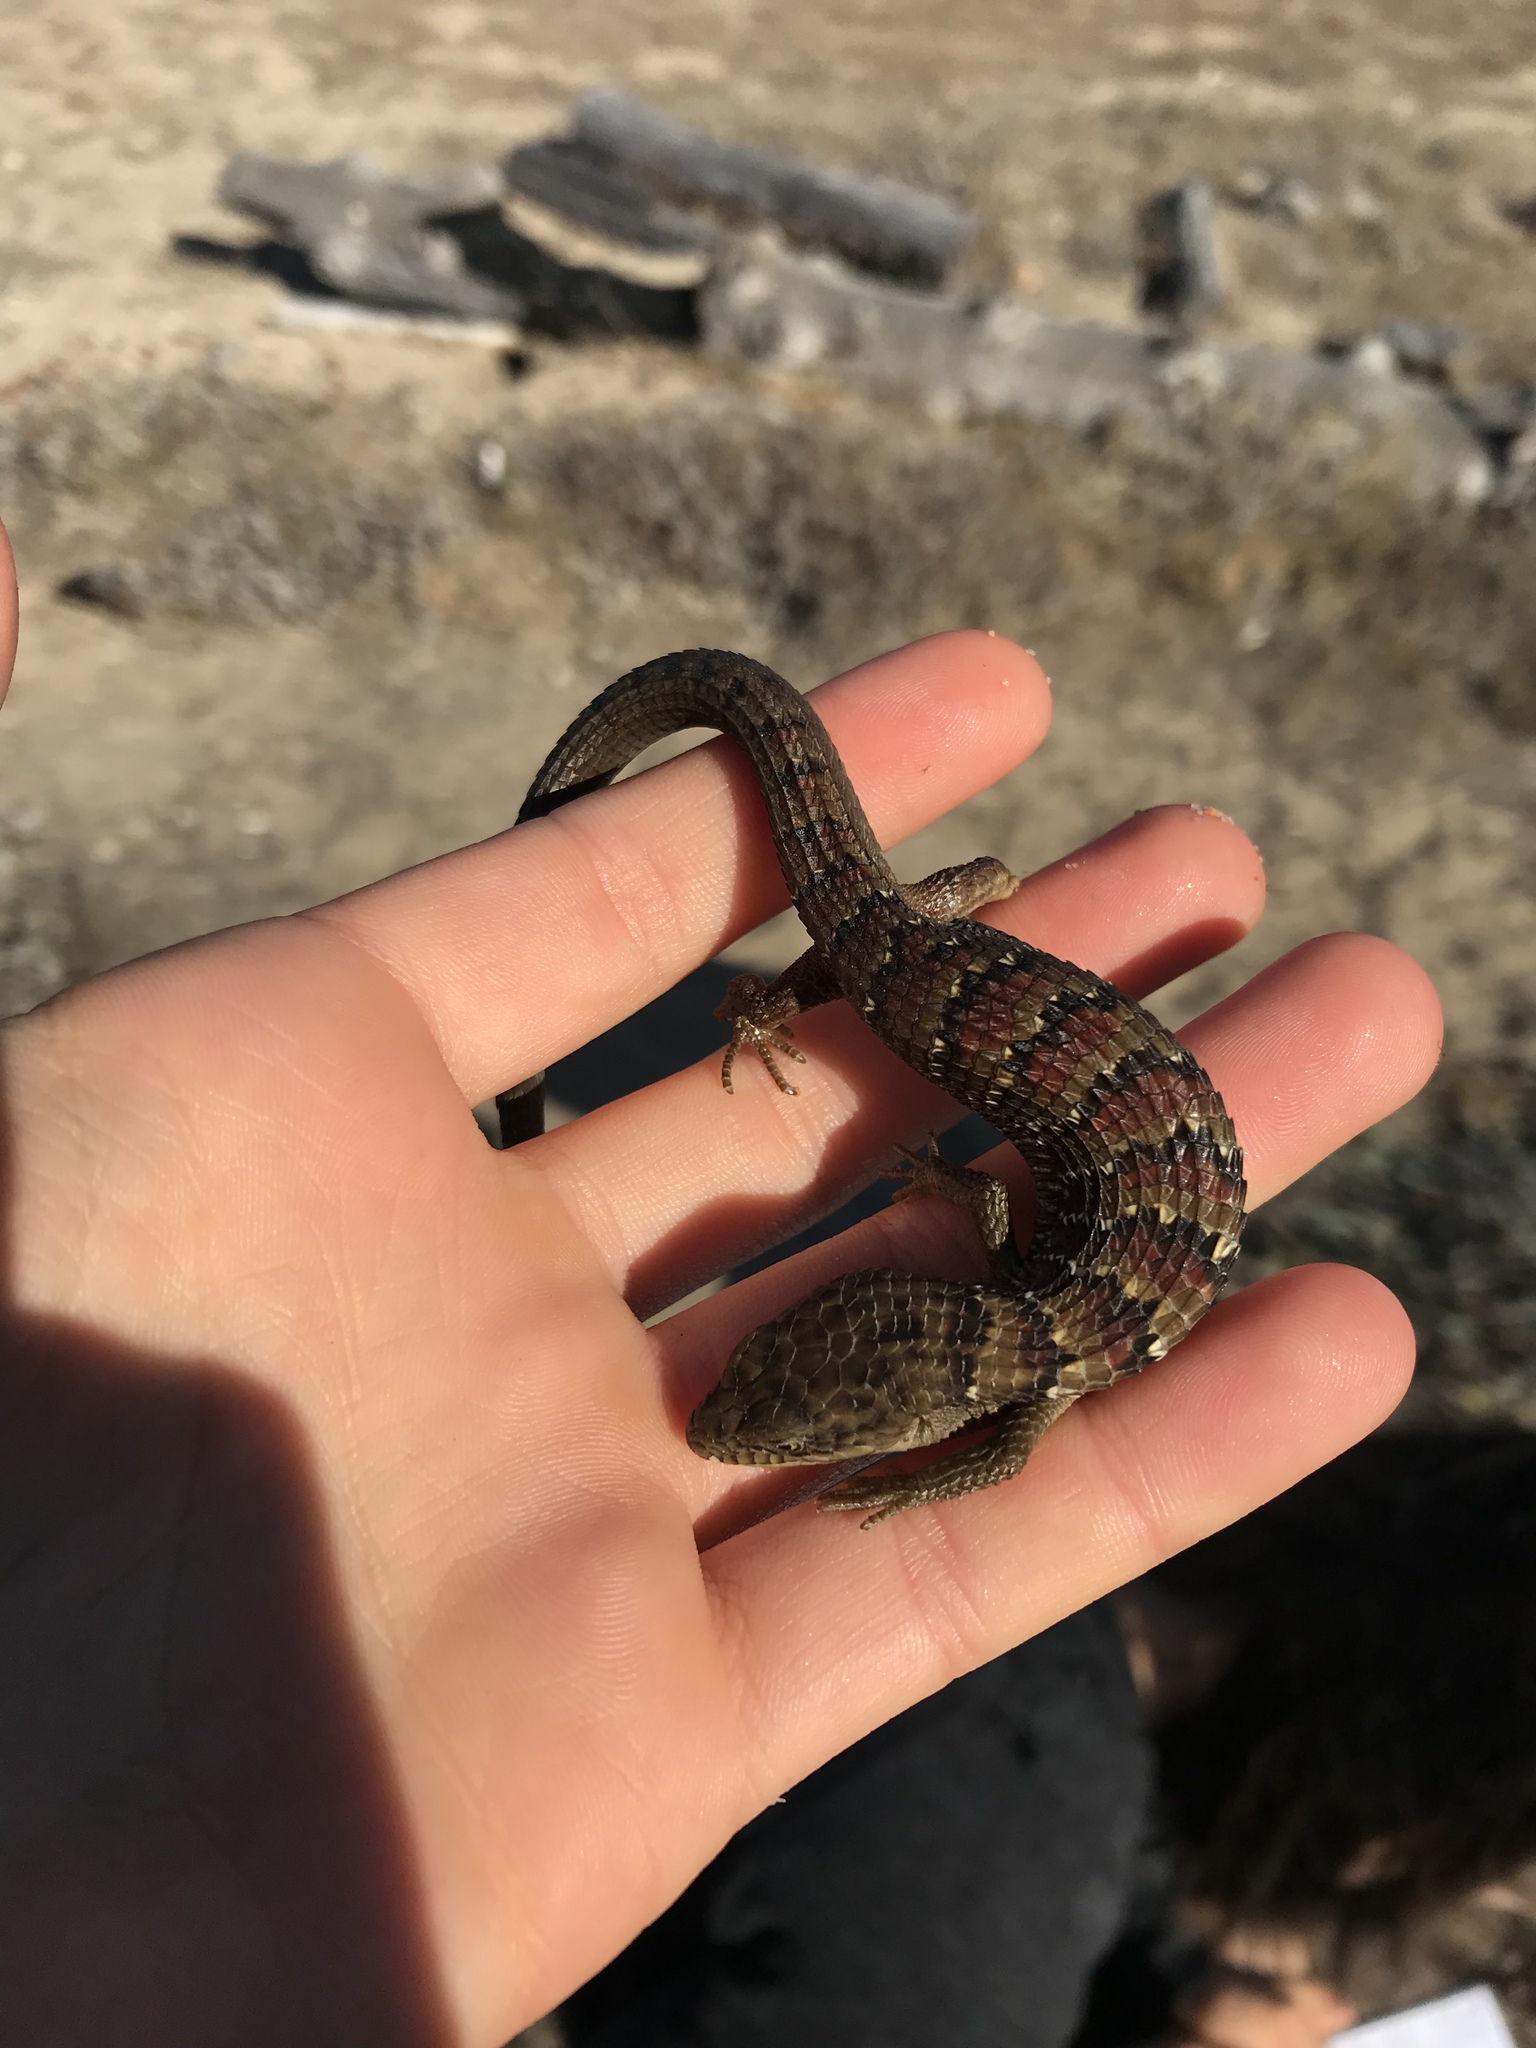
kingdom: Animalia
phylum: Chordata
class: Squamata
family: Anguidae
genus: Elgaria
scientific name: Elgaria multicarinata
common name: Southern alligator lizard
